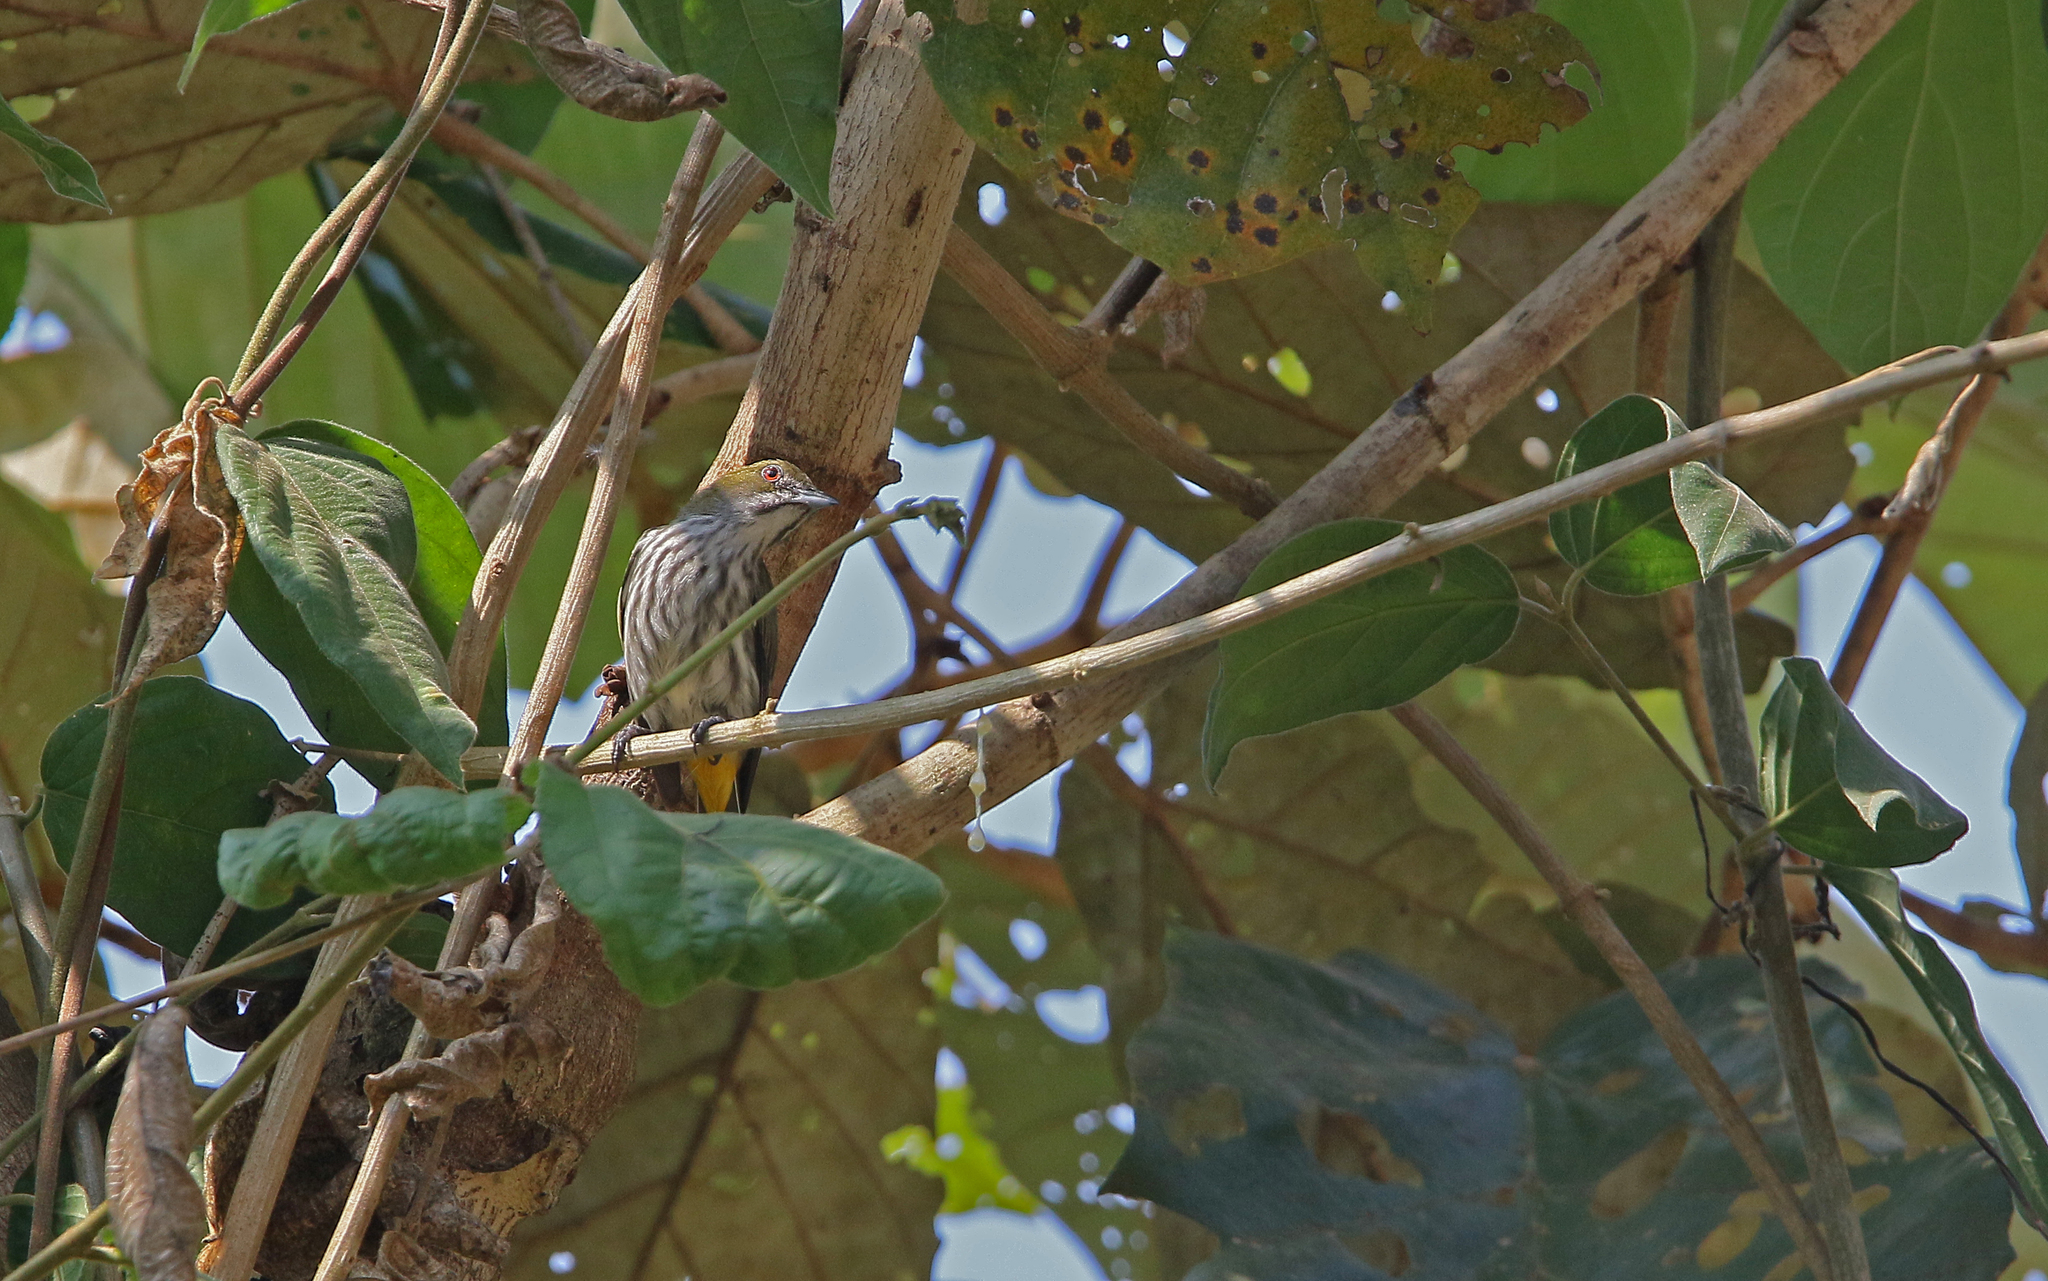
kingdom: Animalia
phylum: Chordata
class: Aves
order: Passeriformes
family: Dicaeidae
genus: Dicaeum
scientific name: Dicaeum chrysorrheum
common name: Yellow-vented flowerpecker
